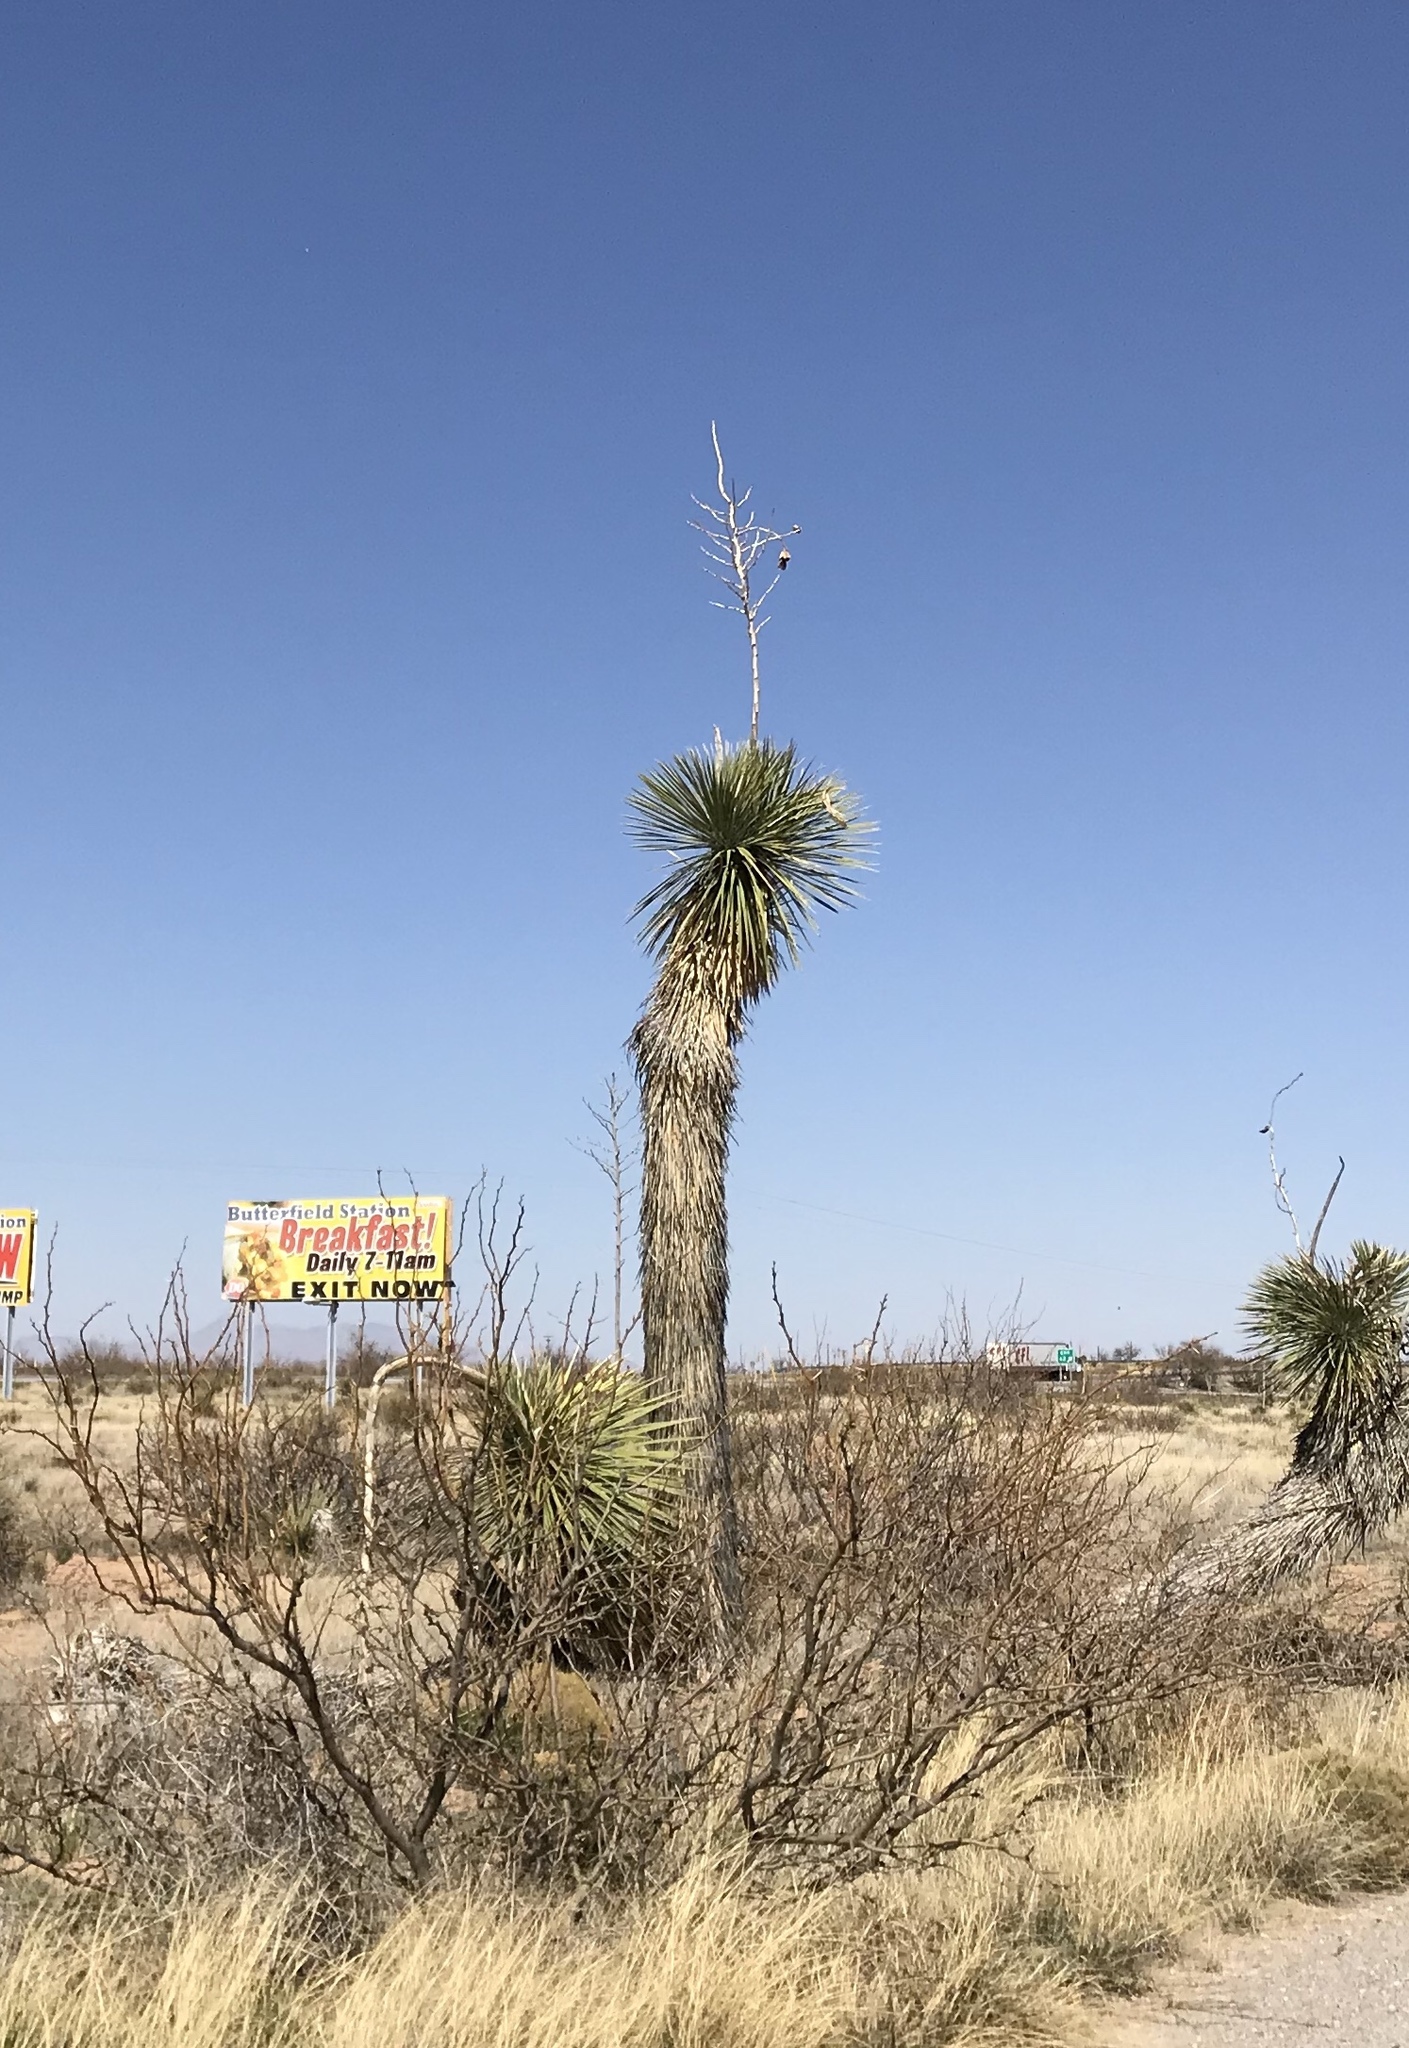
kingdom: Plantae
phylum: Tracheophyta
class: Liliopsida
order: Asparagales
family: Asparagaceae
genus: Yucca
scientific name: Yucca elata
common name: Palmella
